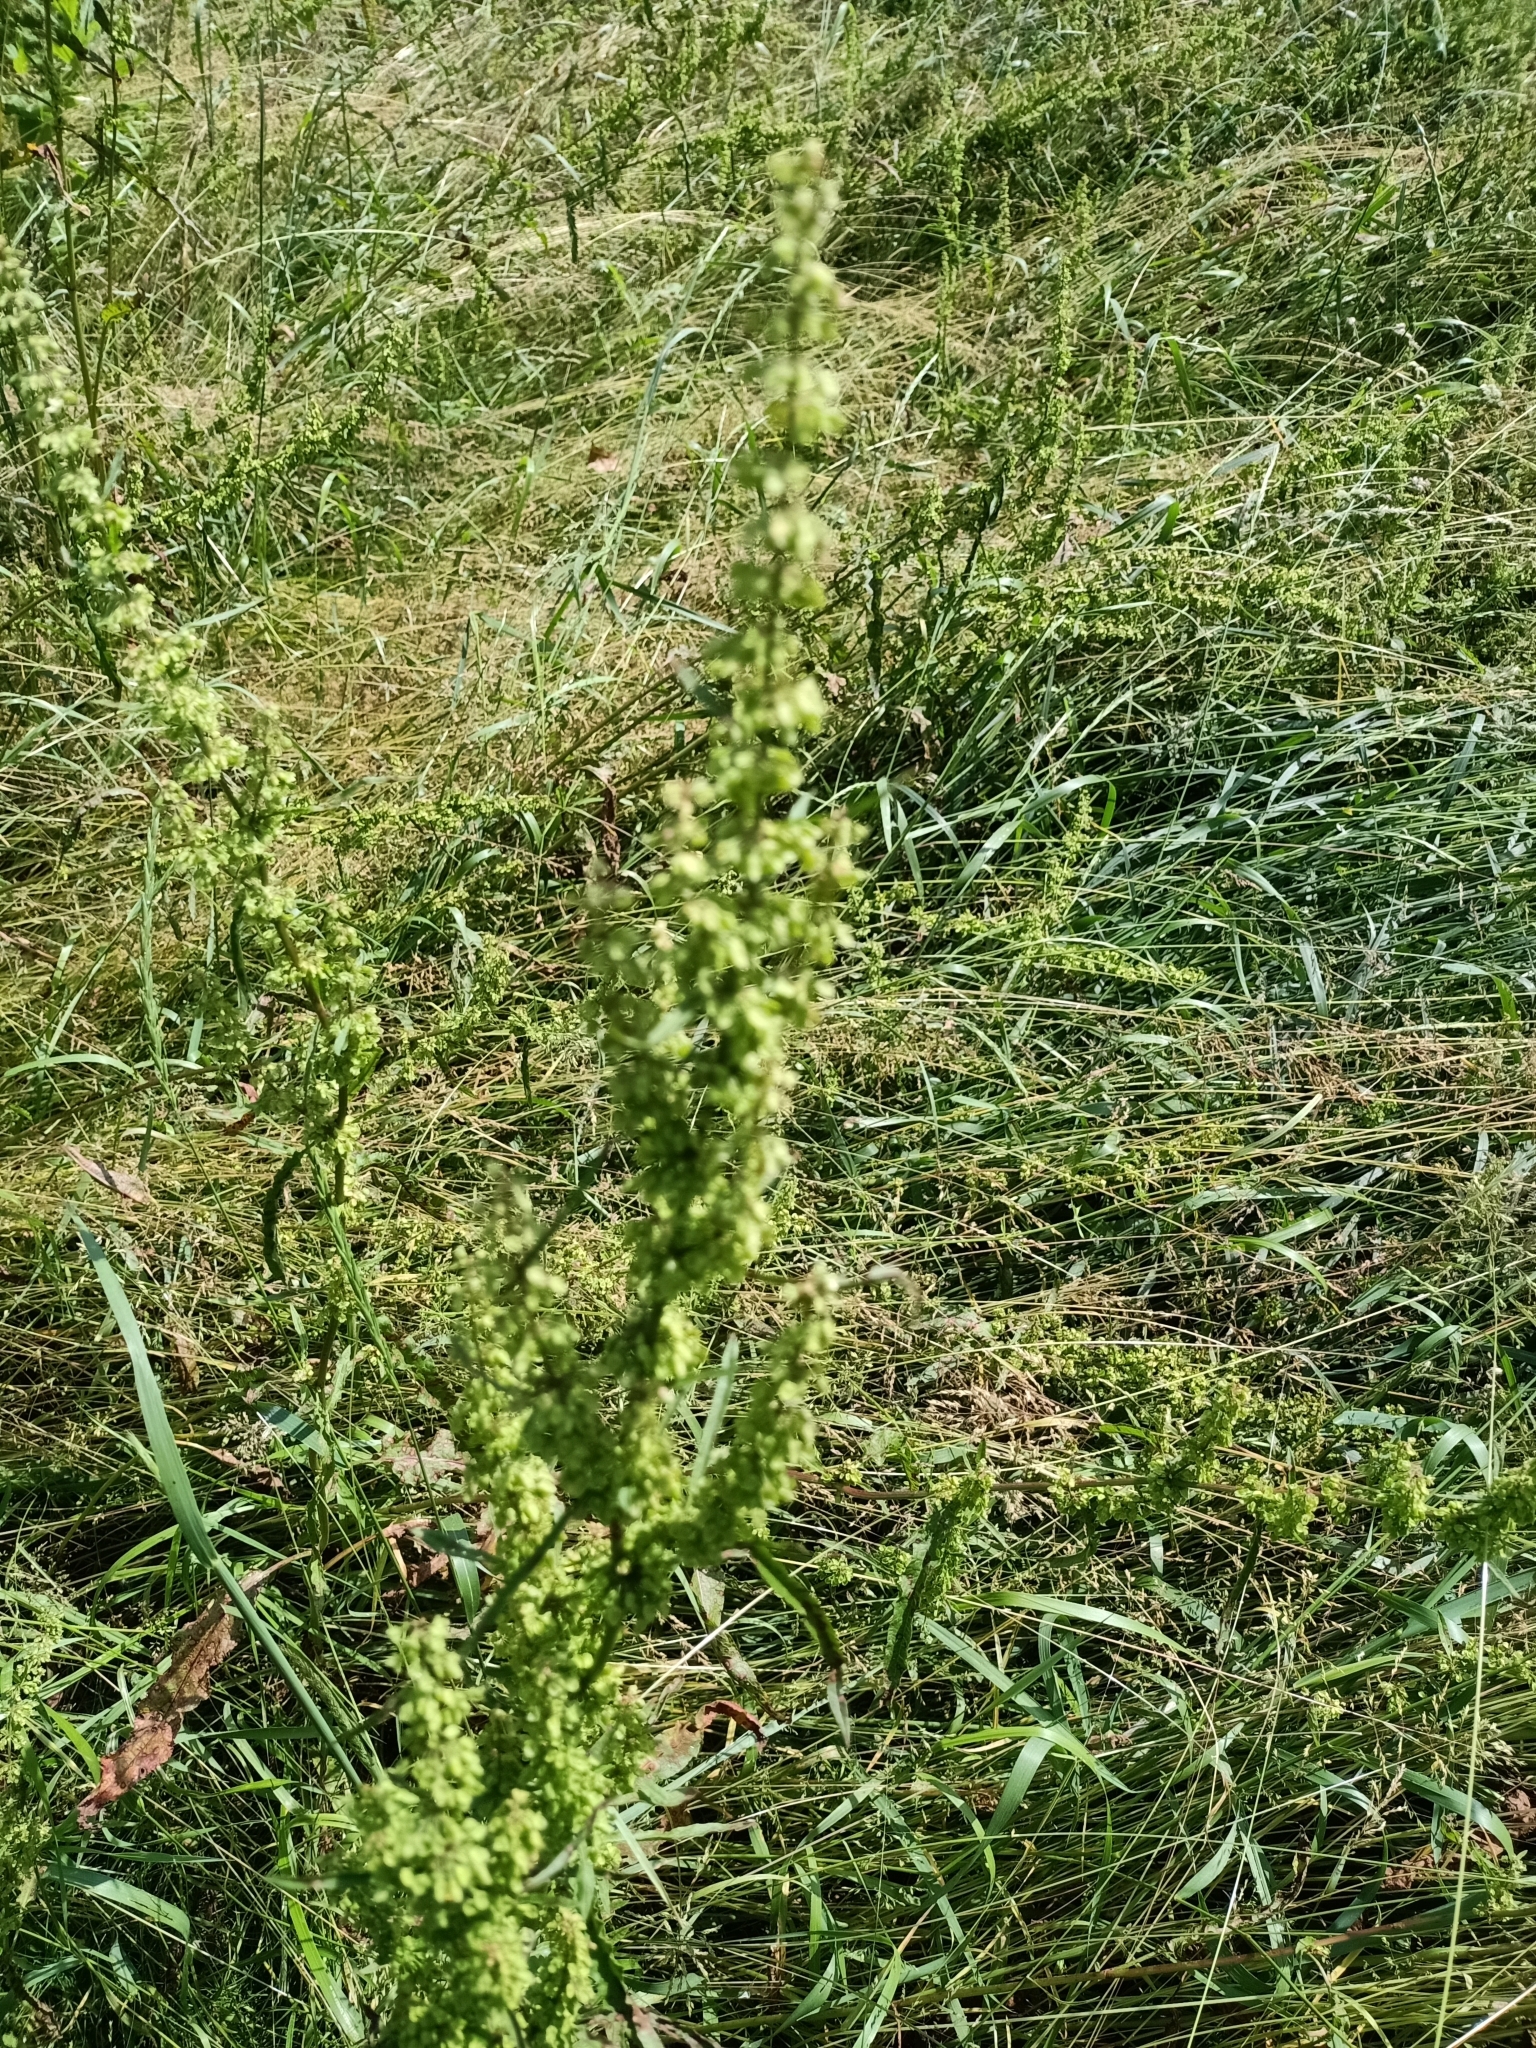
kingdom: Plantae
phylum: Tracheophyta
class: Magnoliopsida
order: Caryophyllales
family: Polygonaceae
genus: Rumex
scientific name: Rumex crispus
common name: Curled dock
